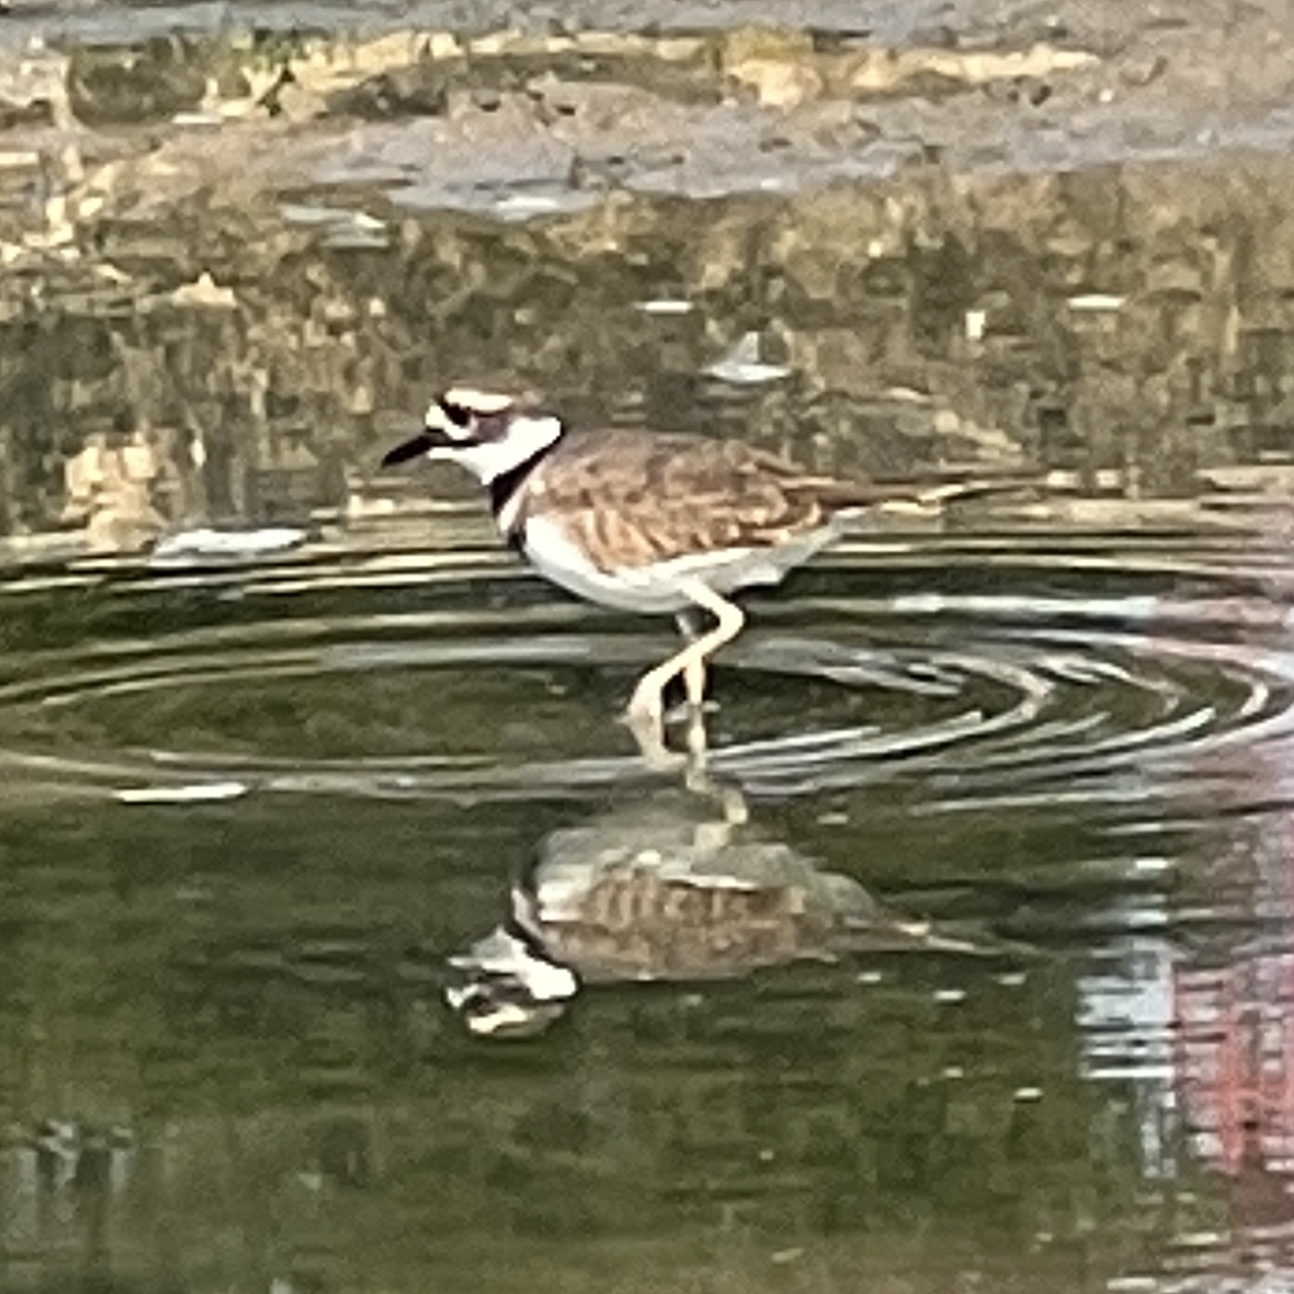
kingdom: Animalia
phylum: Chordata
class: Aves
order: Charadriiformes
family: Charadriidae
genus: Charadrius
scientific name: Charadrius vociferus
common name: Killdeer
